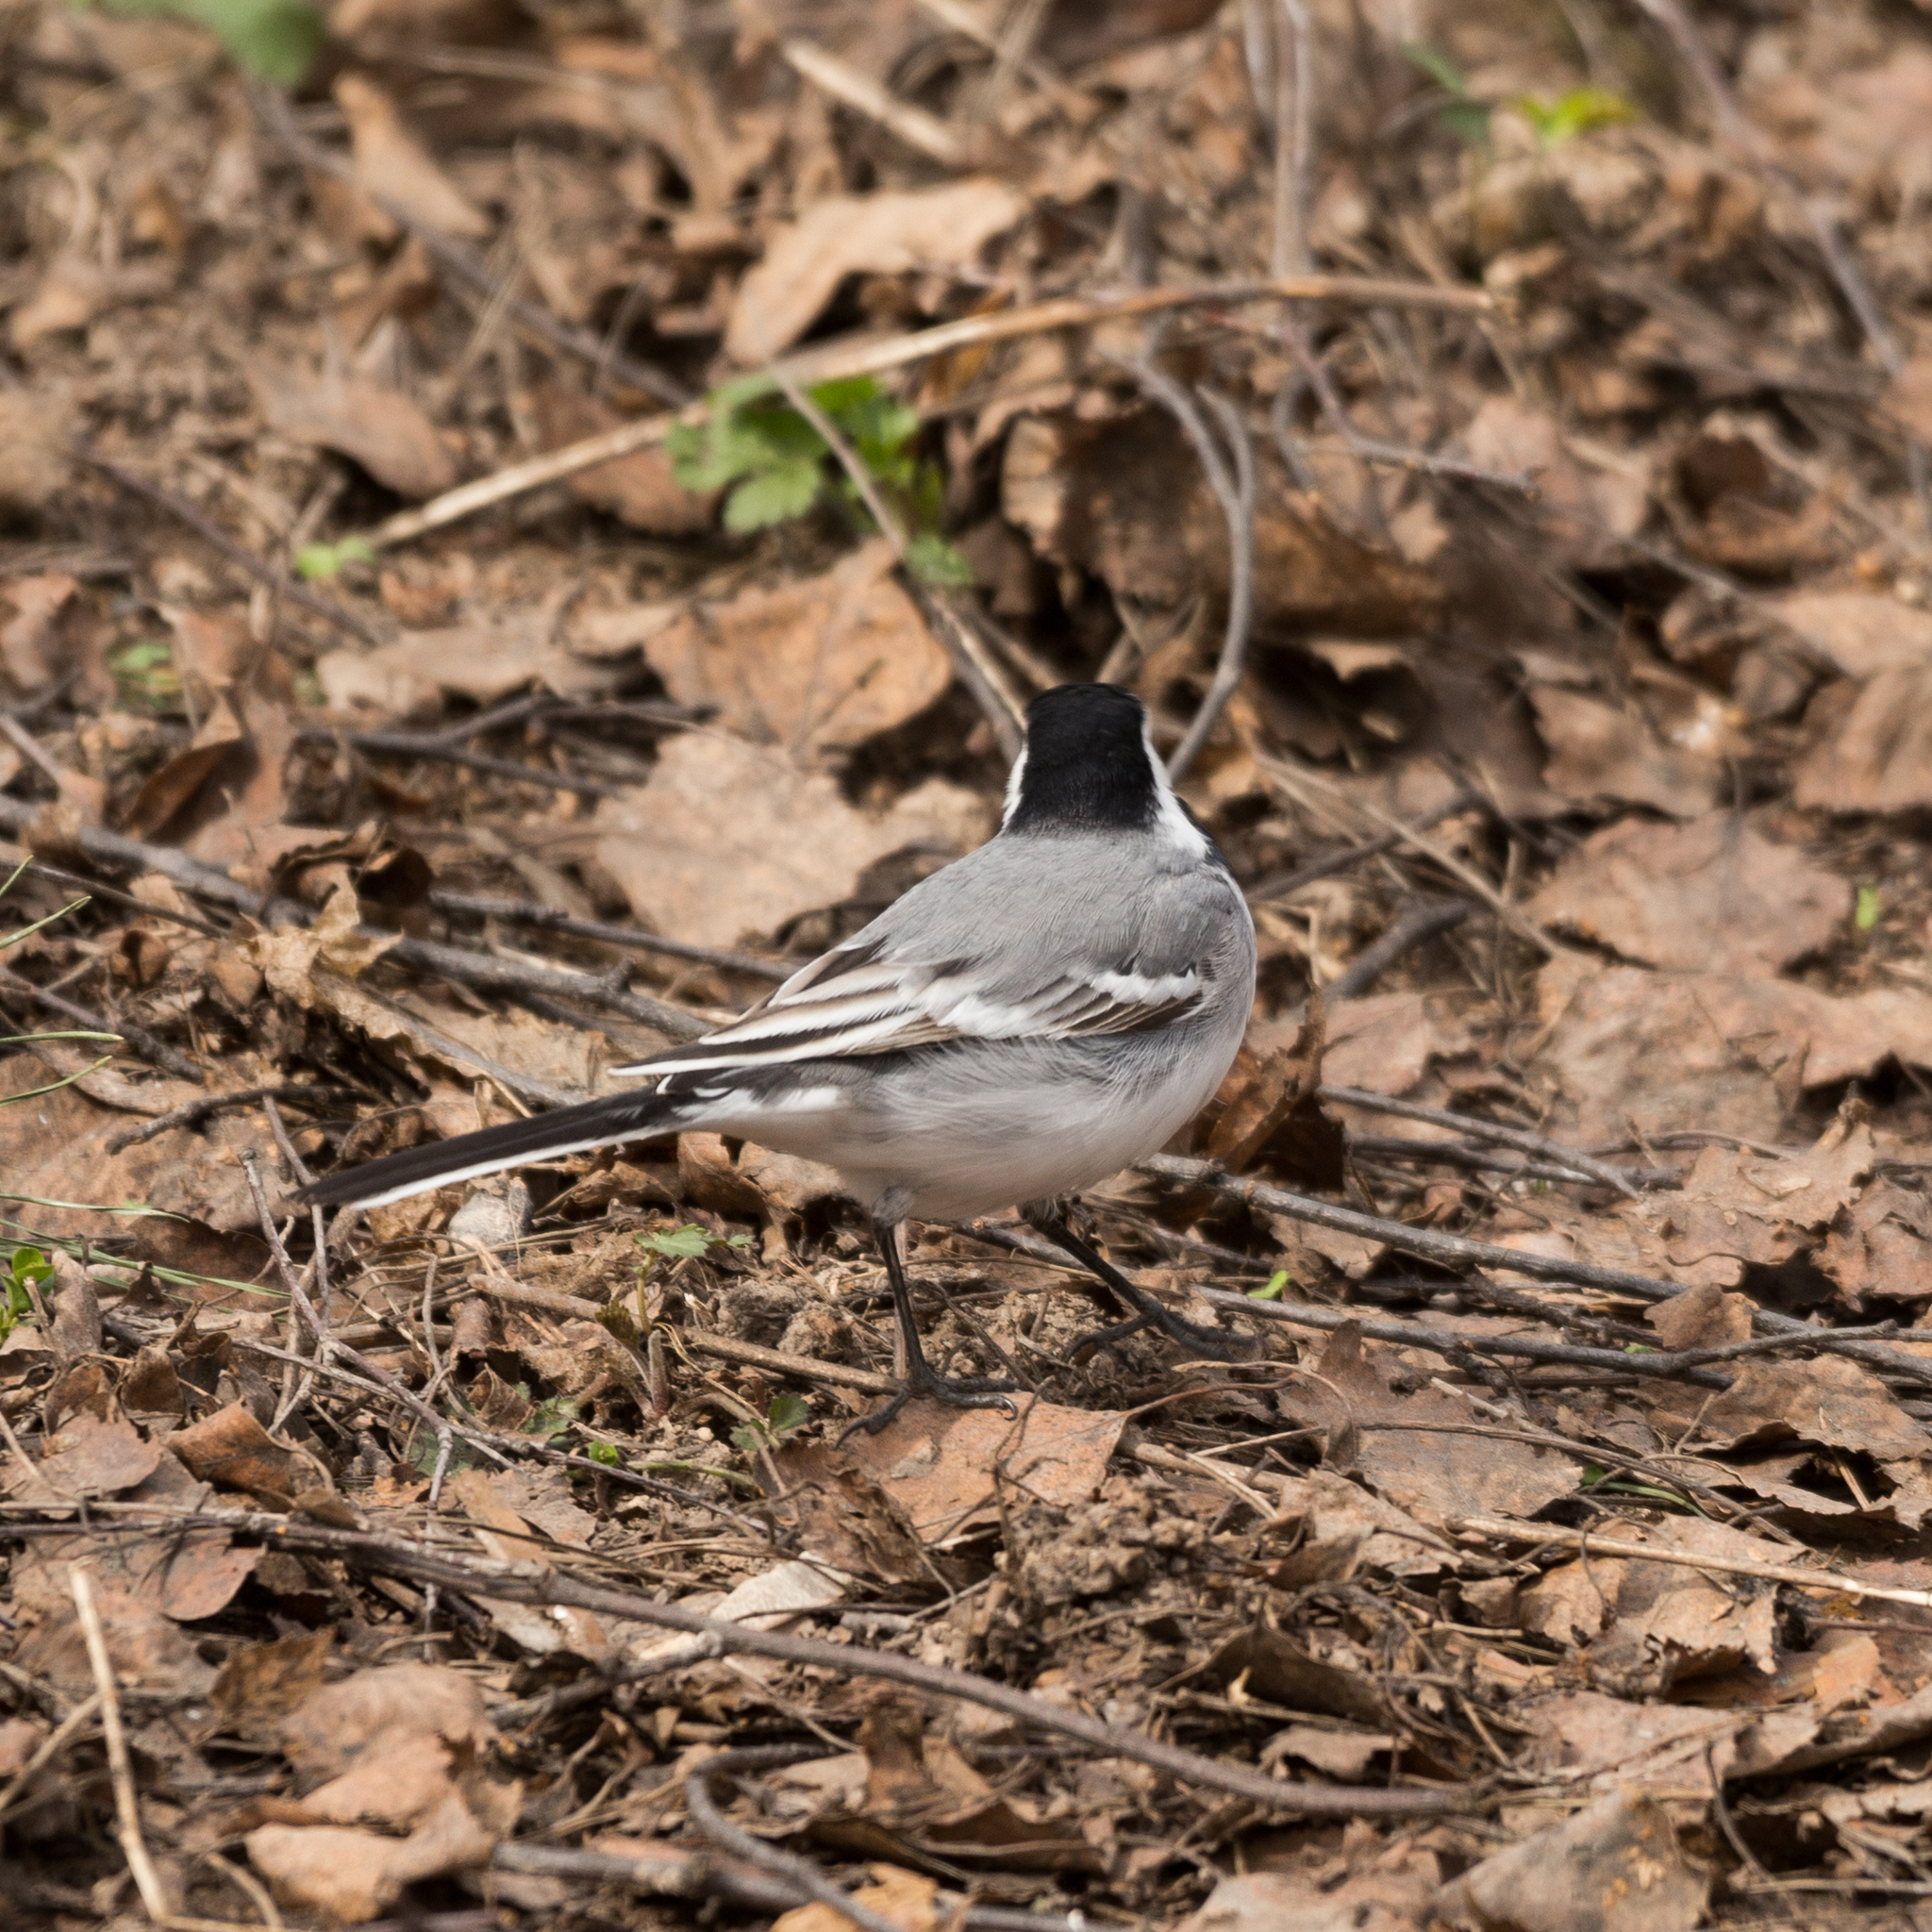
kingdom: Animalia
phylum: Chordata
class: Aves
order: Passeriformes
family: Motacillidae
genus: Motacilla
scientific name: Motacilla alba
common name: White wagtail
